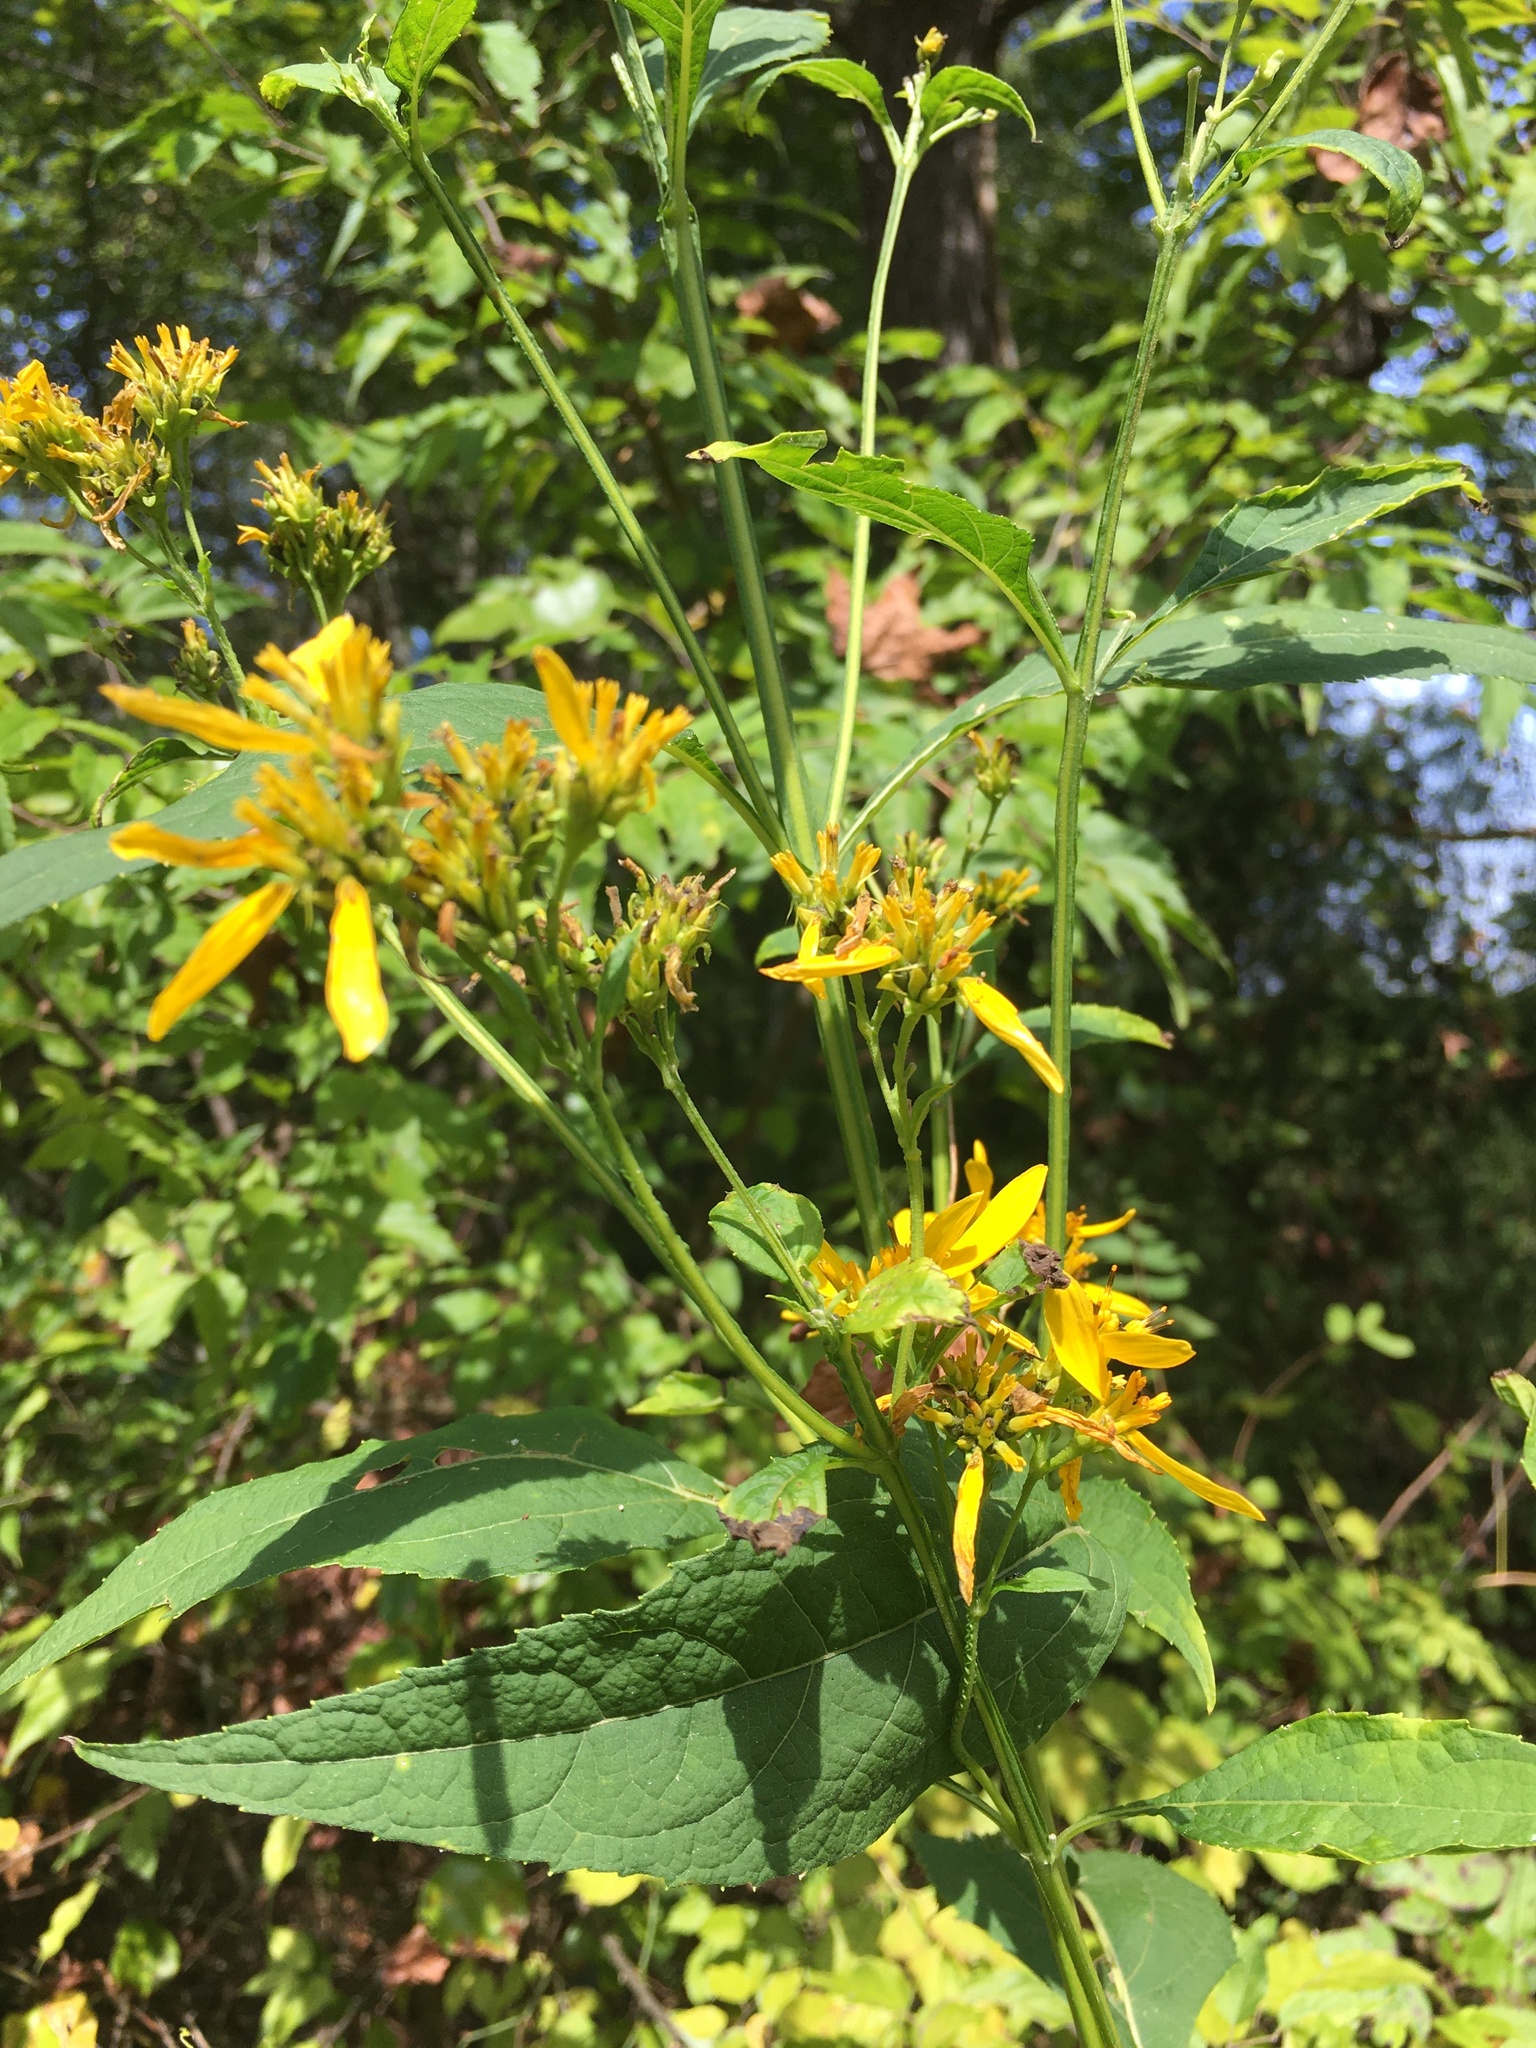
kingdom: Plantae
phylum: Tracheophyta
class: Magnoliopsida
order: Asterales
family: Asteraceae
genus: Verbesina
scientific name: Verbesina occidentalis
